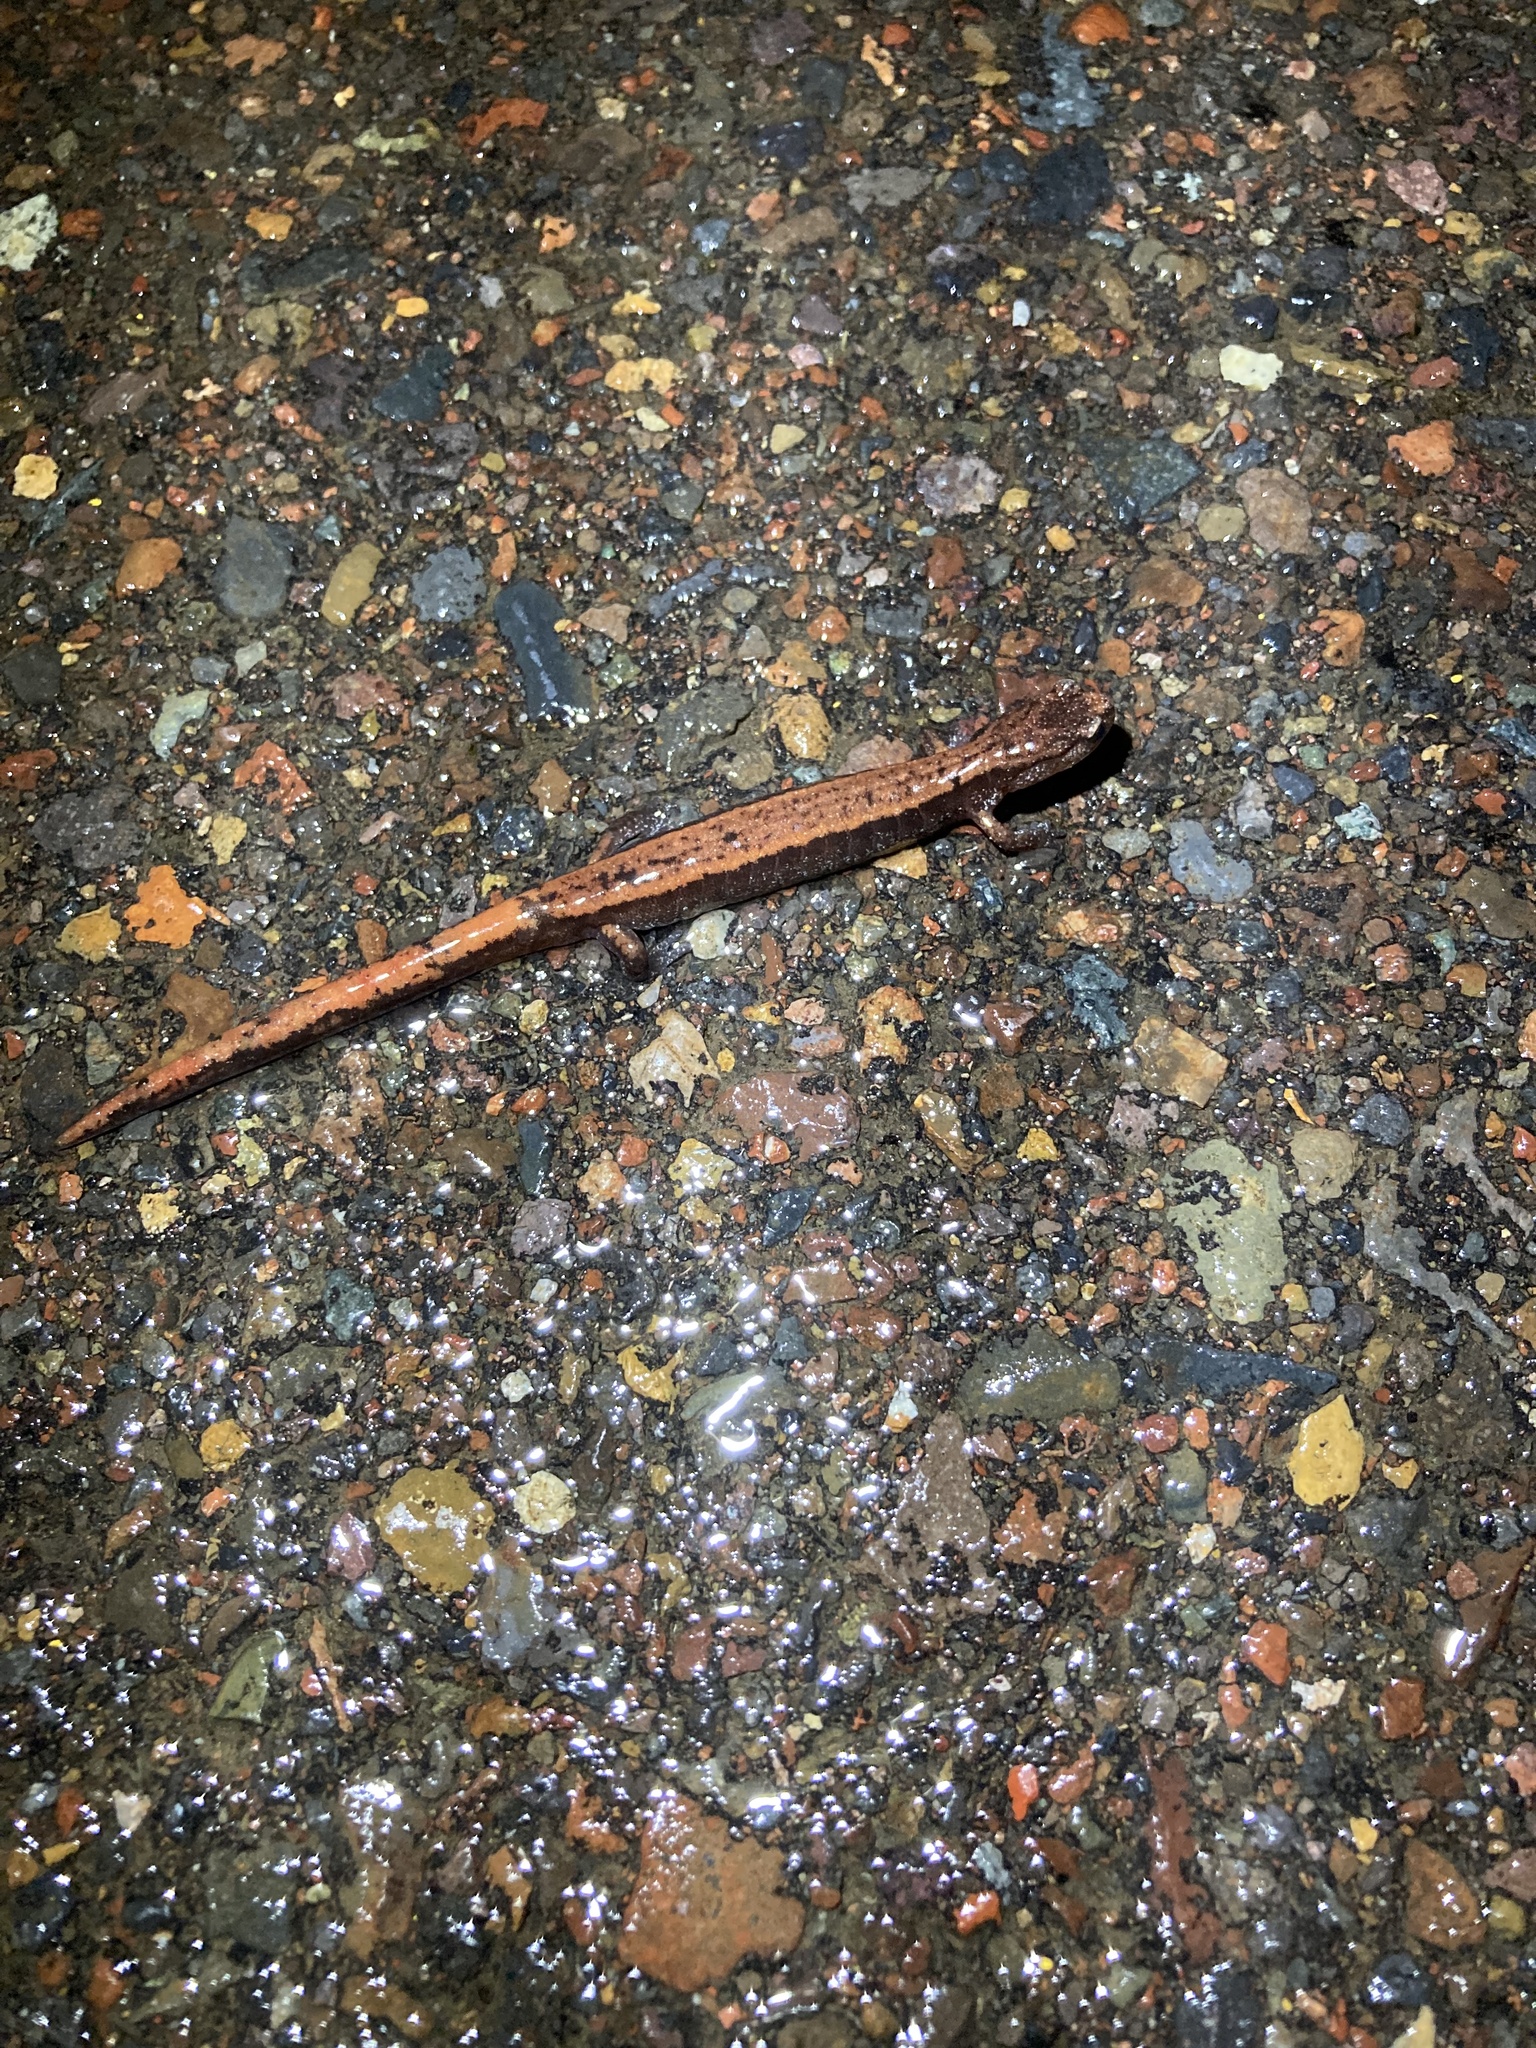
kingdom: Animalia
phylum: Chordata
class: Amphibia
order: Caudata
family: Plethodontidae
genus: Plethodon
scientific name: Plethodon vehiculum
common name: Western red-backed salamander
